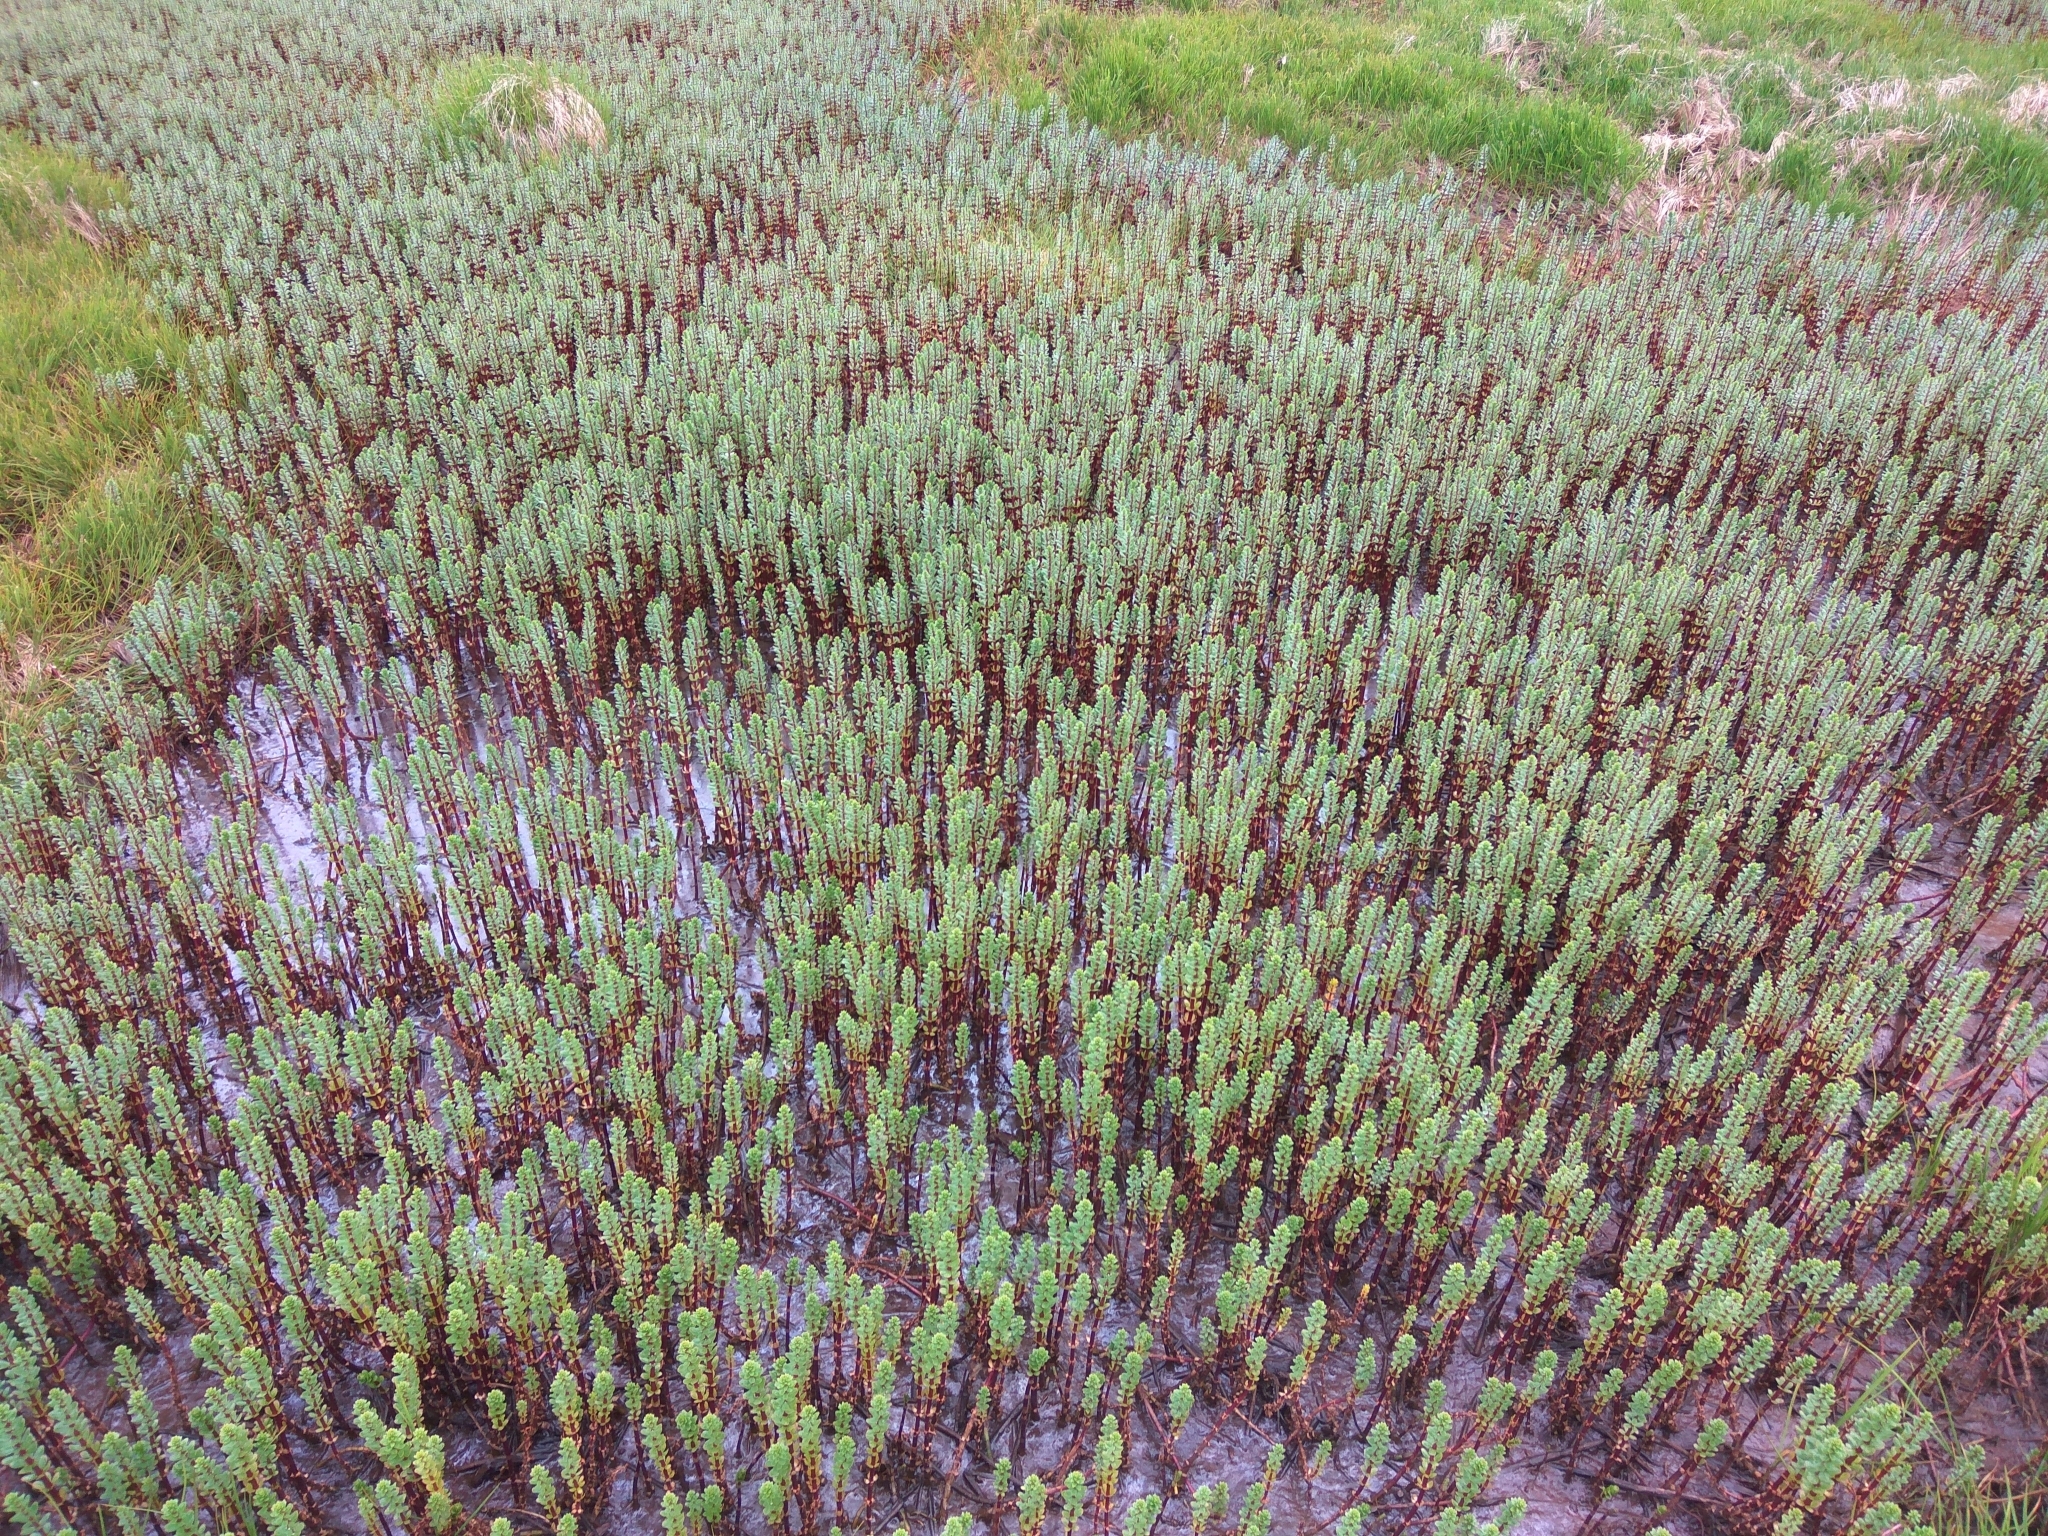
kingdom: Plantae
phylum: Tracheophyta
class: Magnoliopsida
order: Lamiales
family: Plantaginaceae
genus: Hippuris
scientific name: Hippuris tetraphylla
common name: Four-leaved mare's-tail
